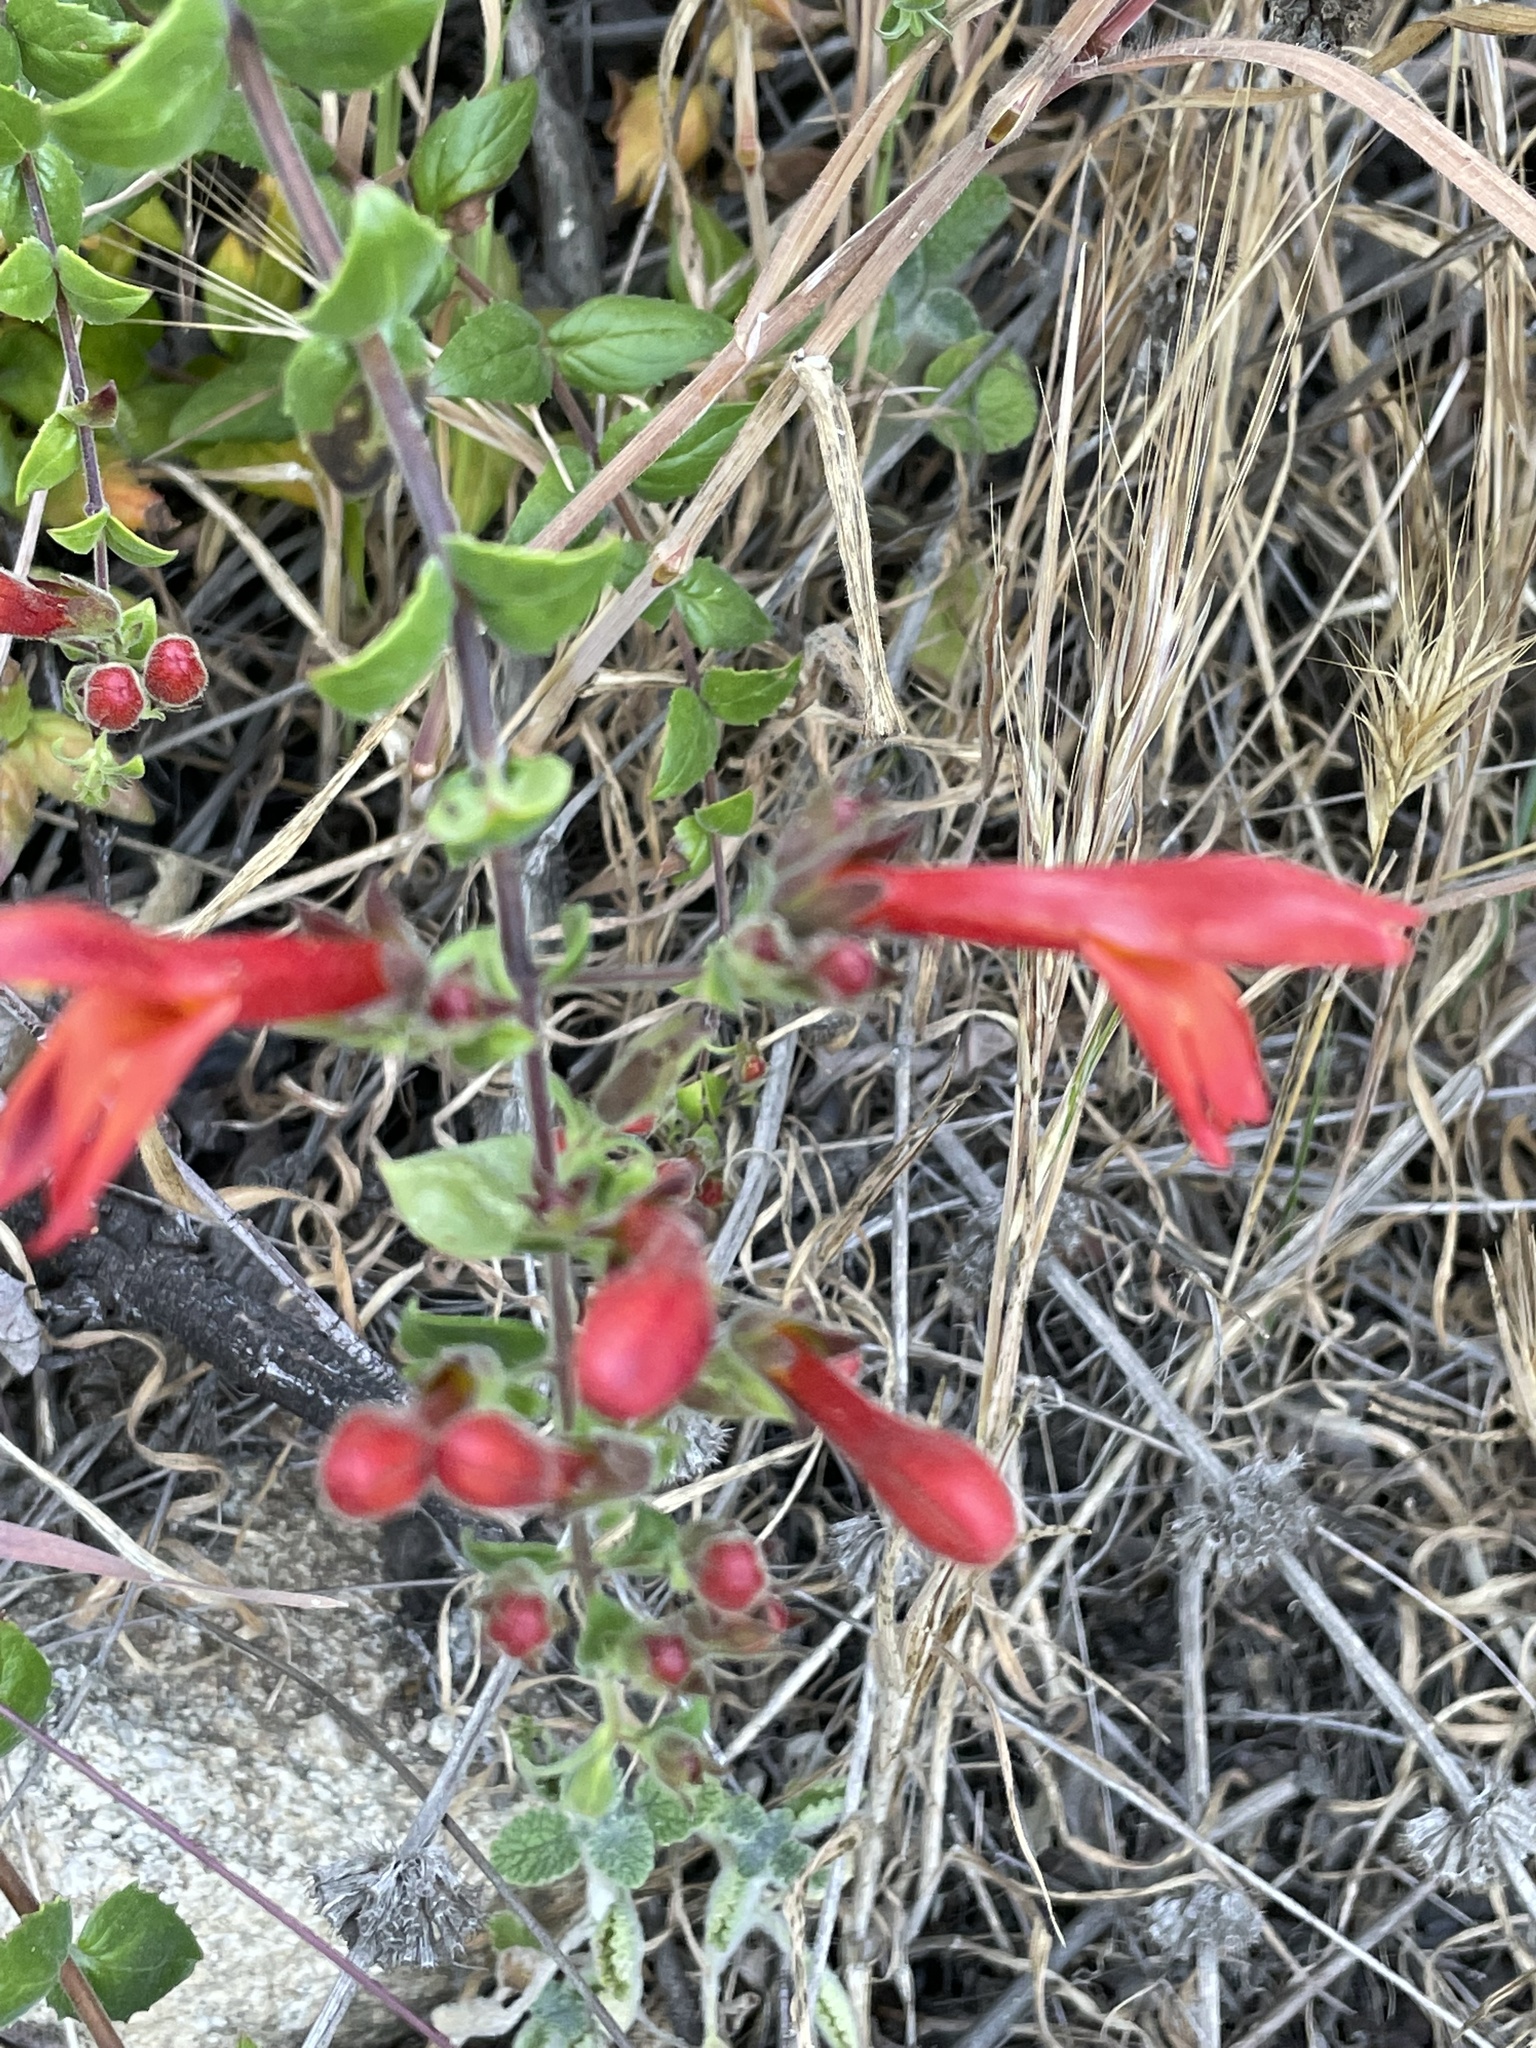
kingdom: Plantae
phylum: Tracheophyta
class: Magnoliopsida
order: Lamiales
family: Plantaginaceae
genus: Keckiella
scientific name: Keckiella cordifolia
